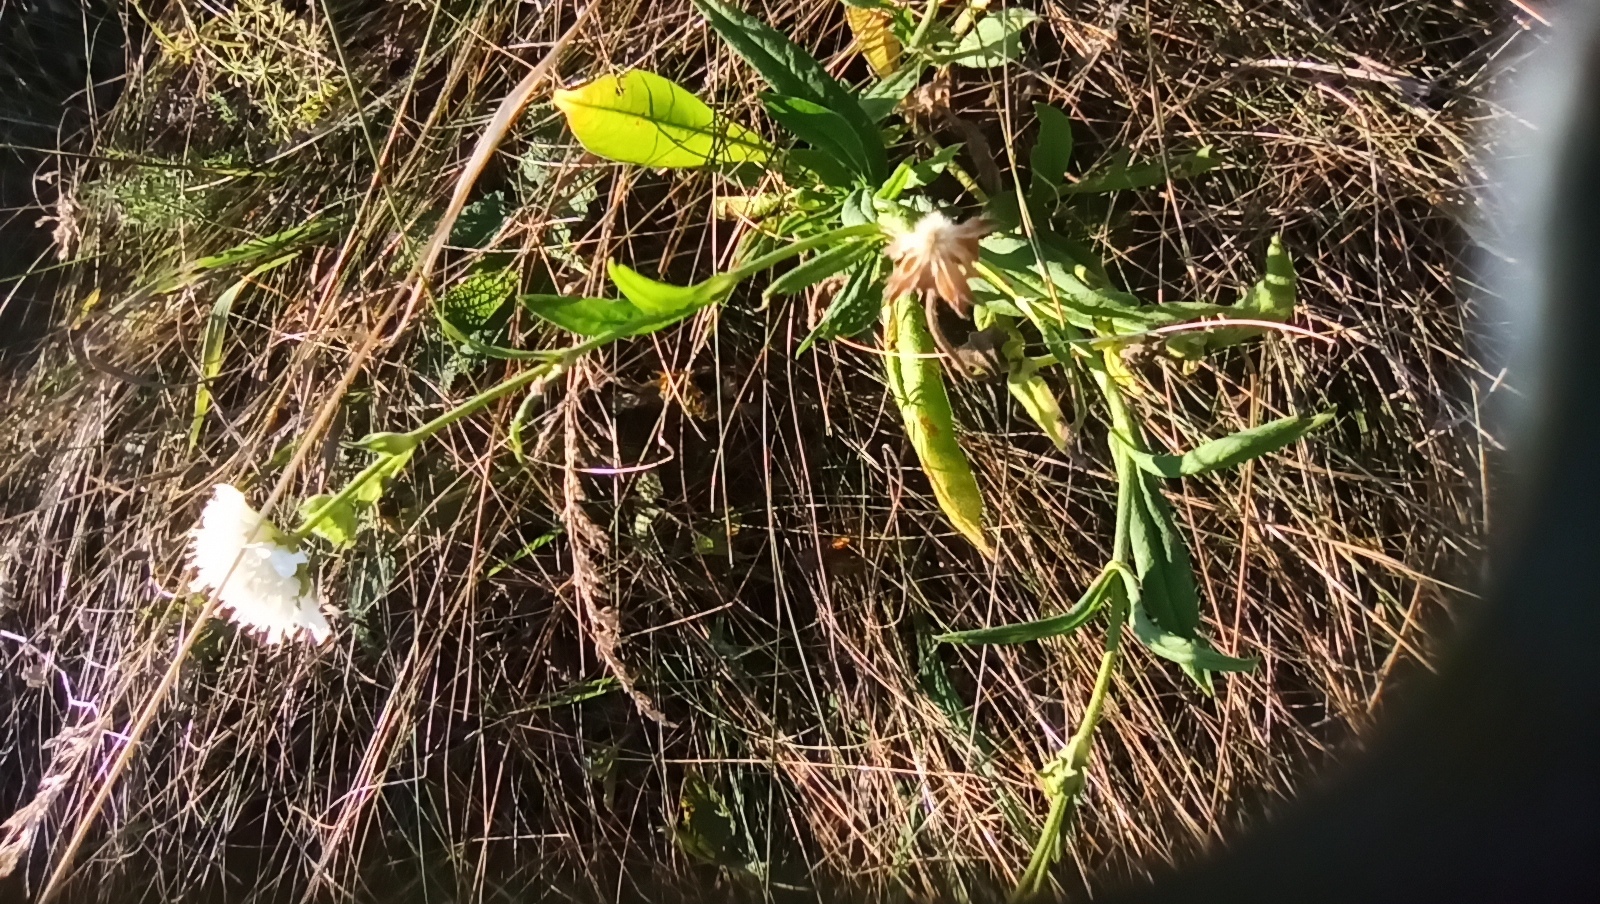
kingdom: Plantae
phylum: Tracheophyta
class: Magnoliopsida
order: Dipsacales
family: Caprifoliaceae
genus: Scabiosa
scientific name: Scabiosa ochroleuca
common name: Cream pincushions
